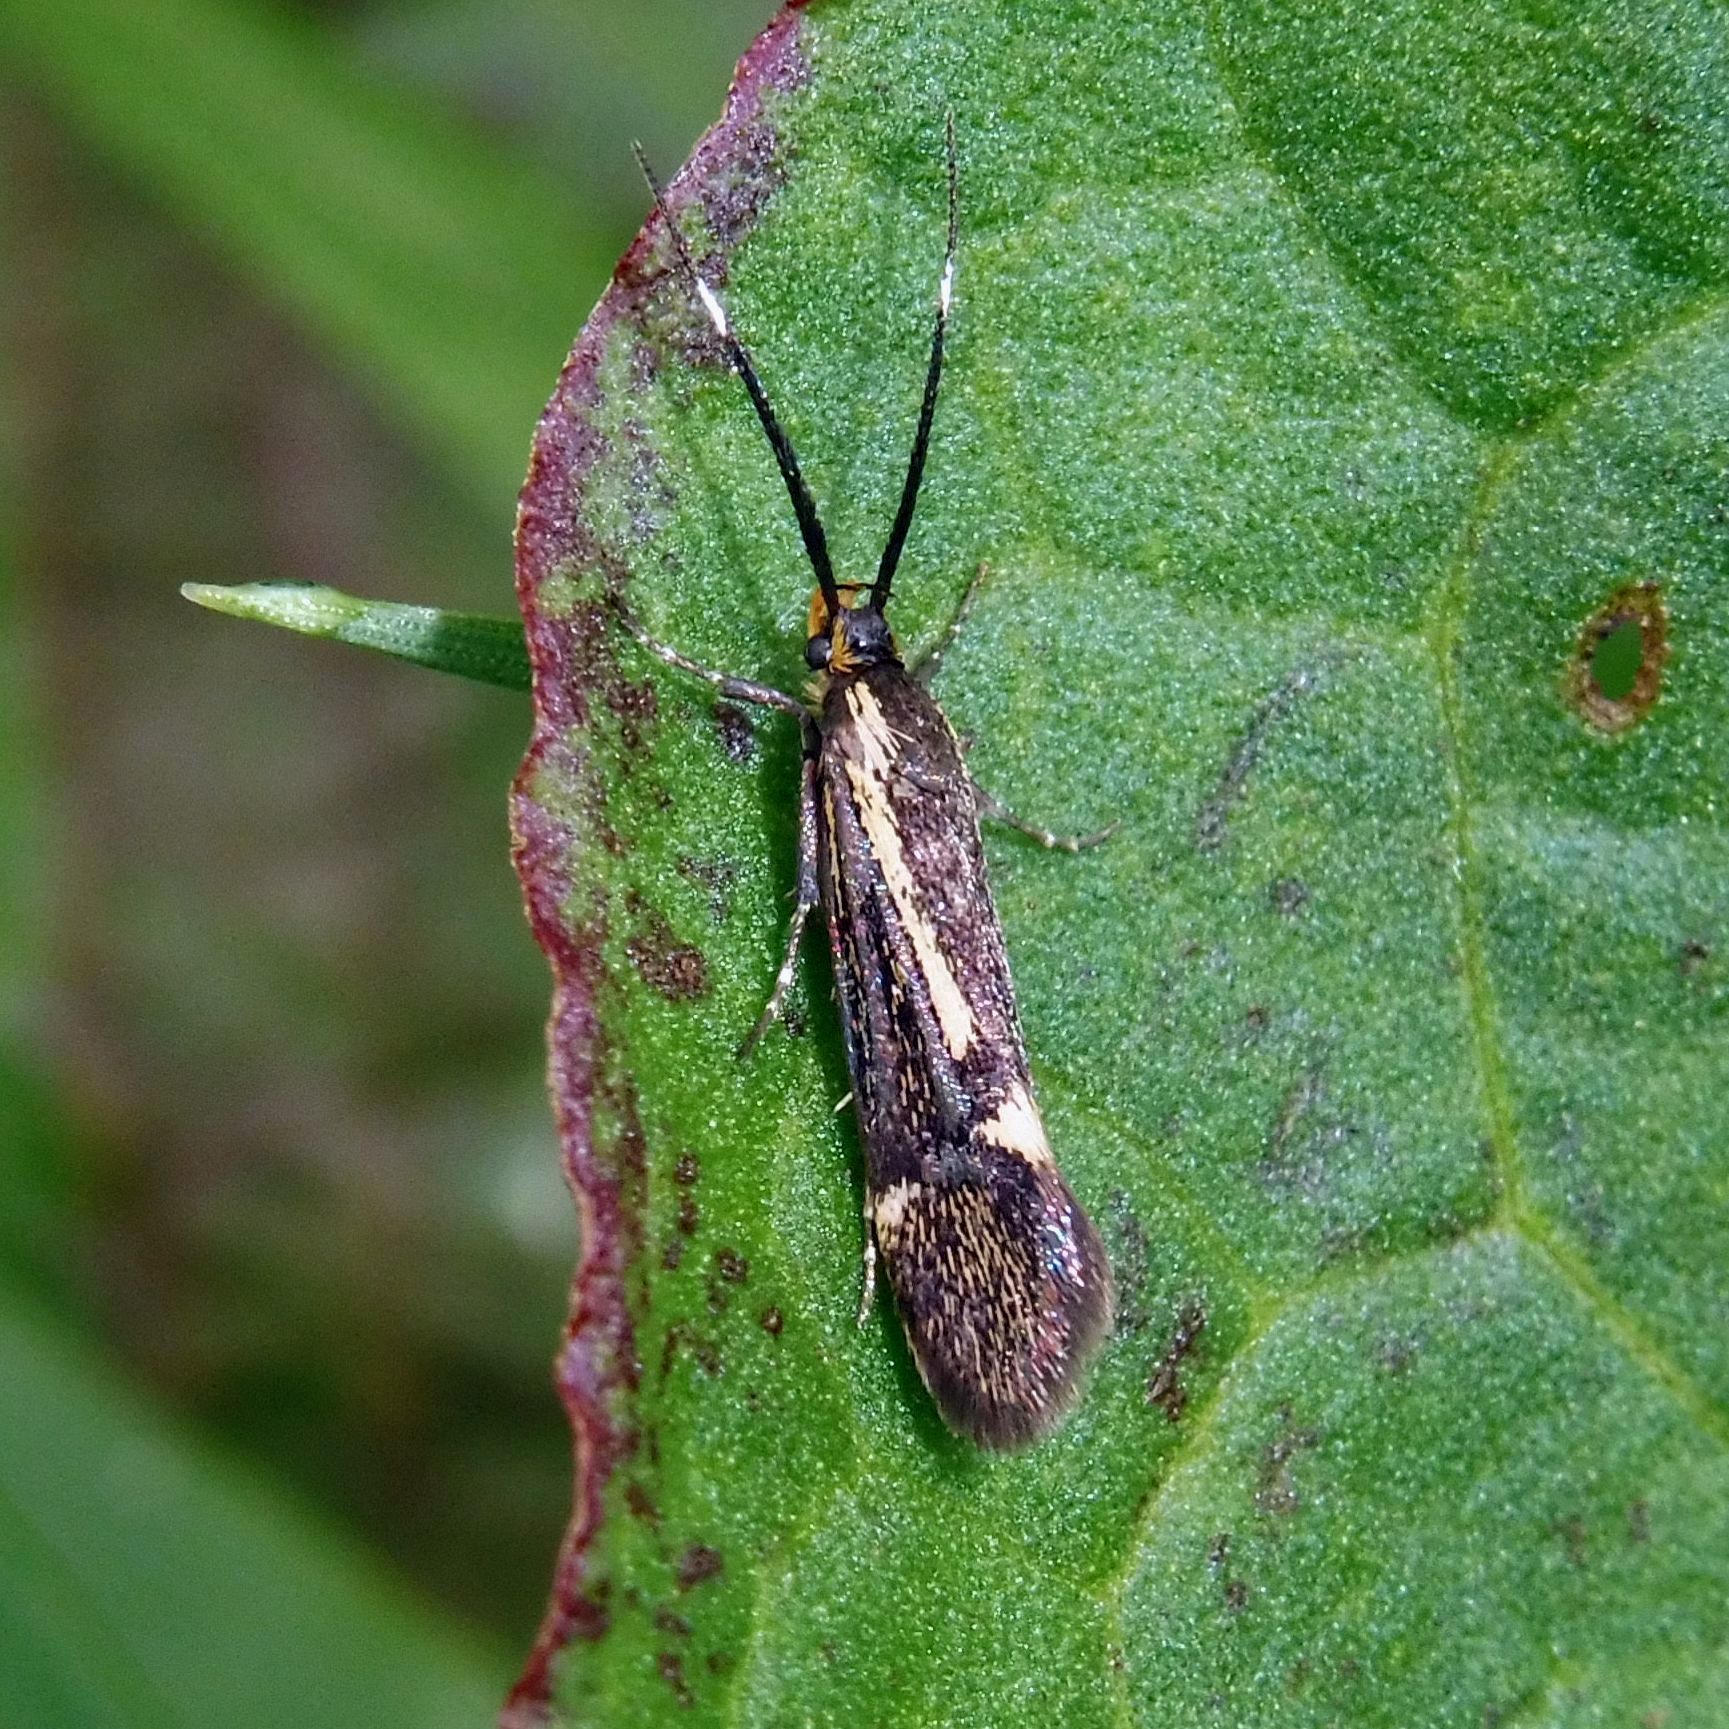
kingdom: Animalia
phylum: Arthropoda
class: Insecta
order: Lepidoptera
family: Oecophoridae
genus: Dafa
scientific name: Dafa Esperia sulphurella
